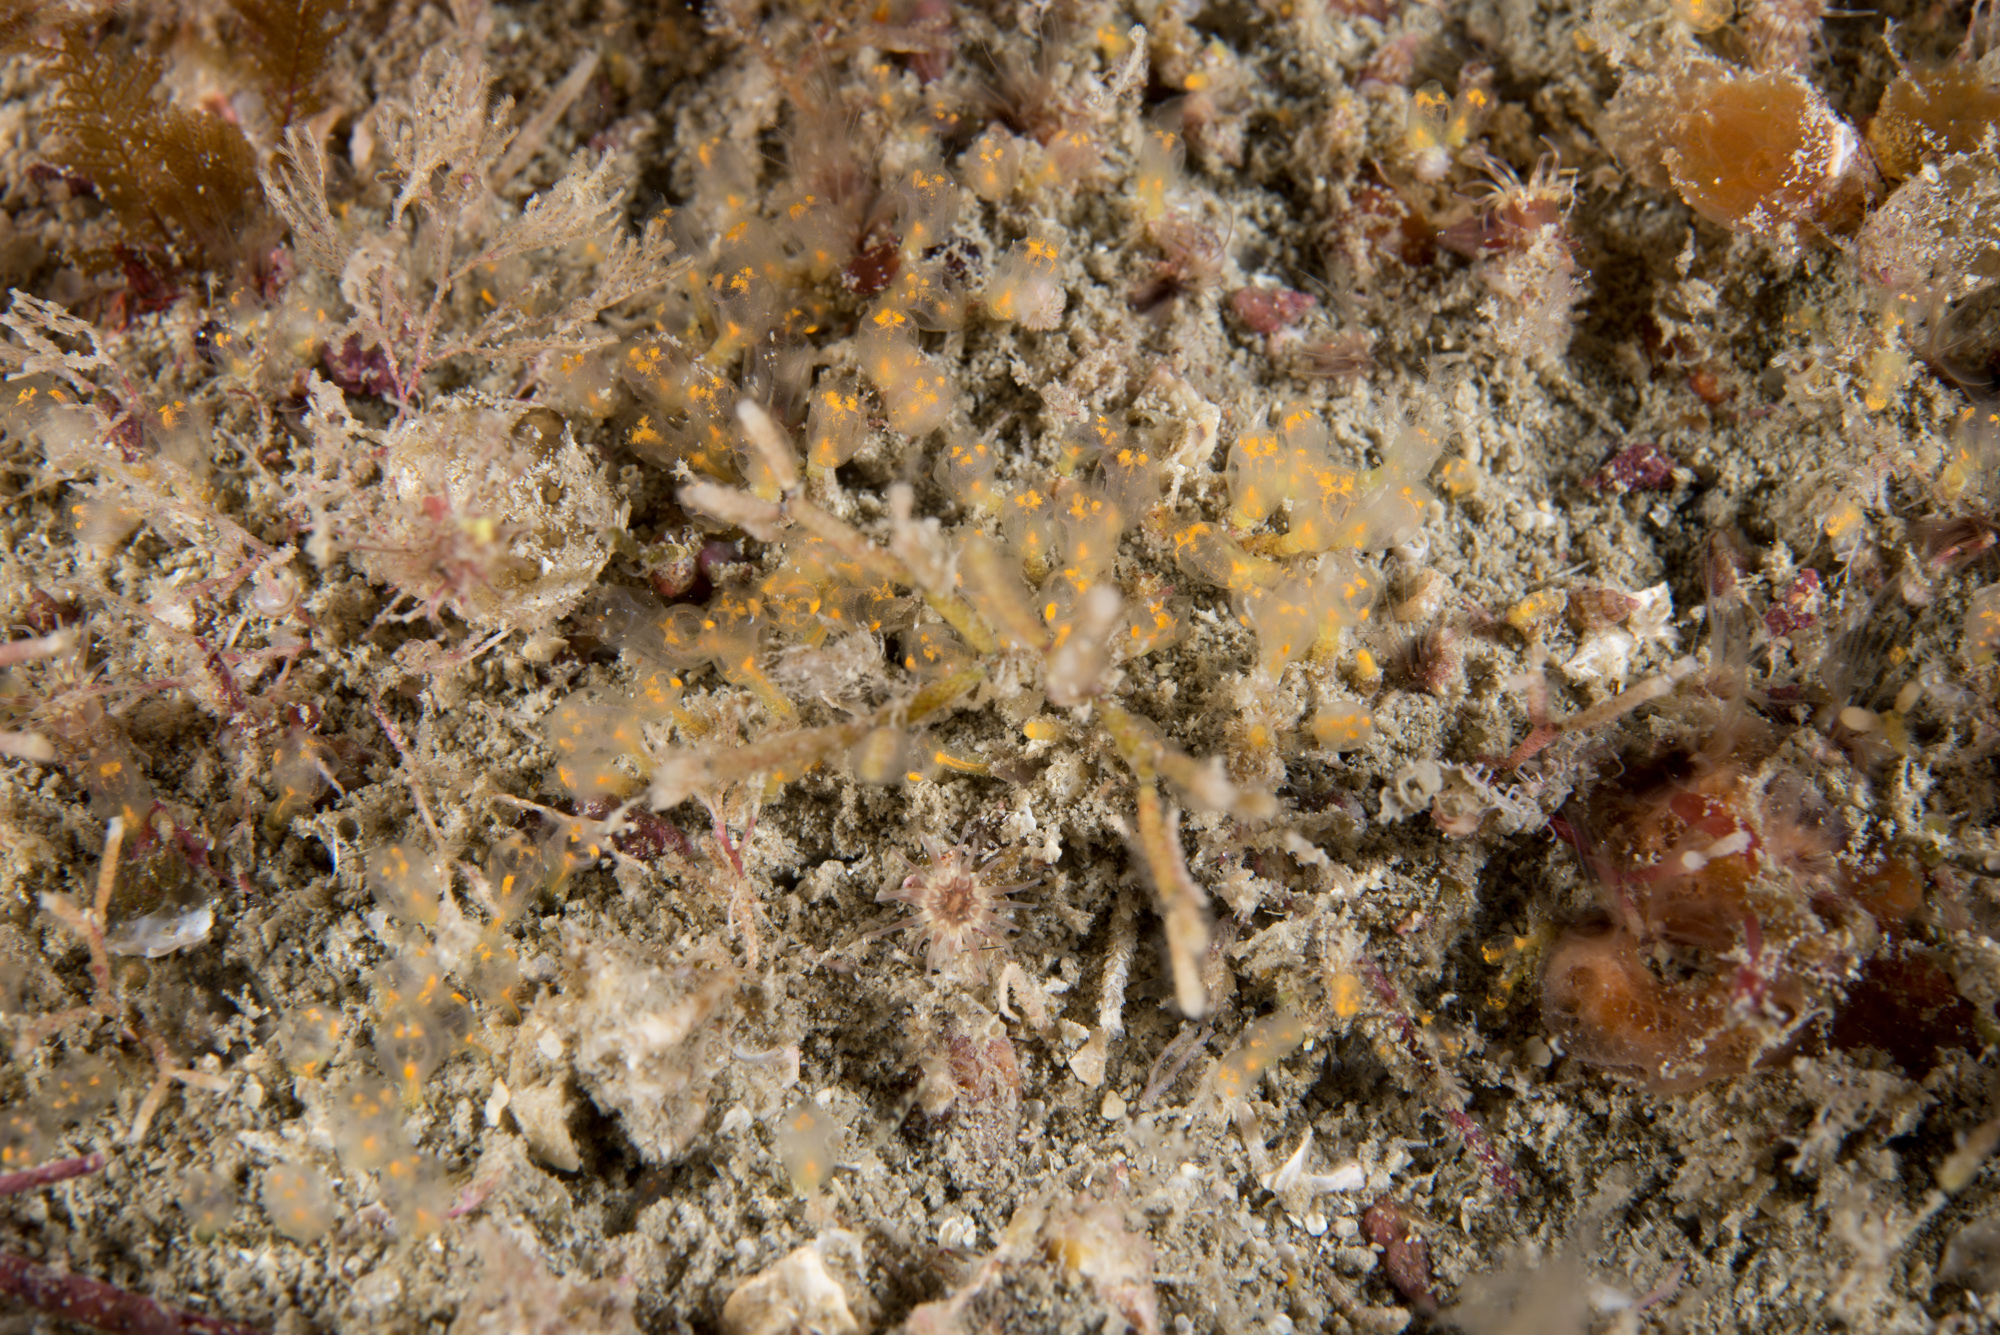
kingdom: Animalia
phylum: Chordata
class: Ascidiacea
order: Aplousobranchia
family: Clavelinidae
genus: Pycnoclavella
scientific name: Pycnoclavella aurilucens
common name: Orange lights seasquirt
